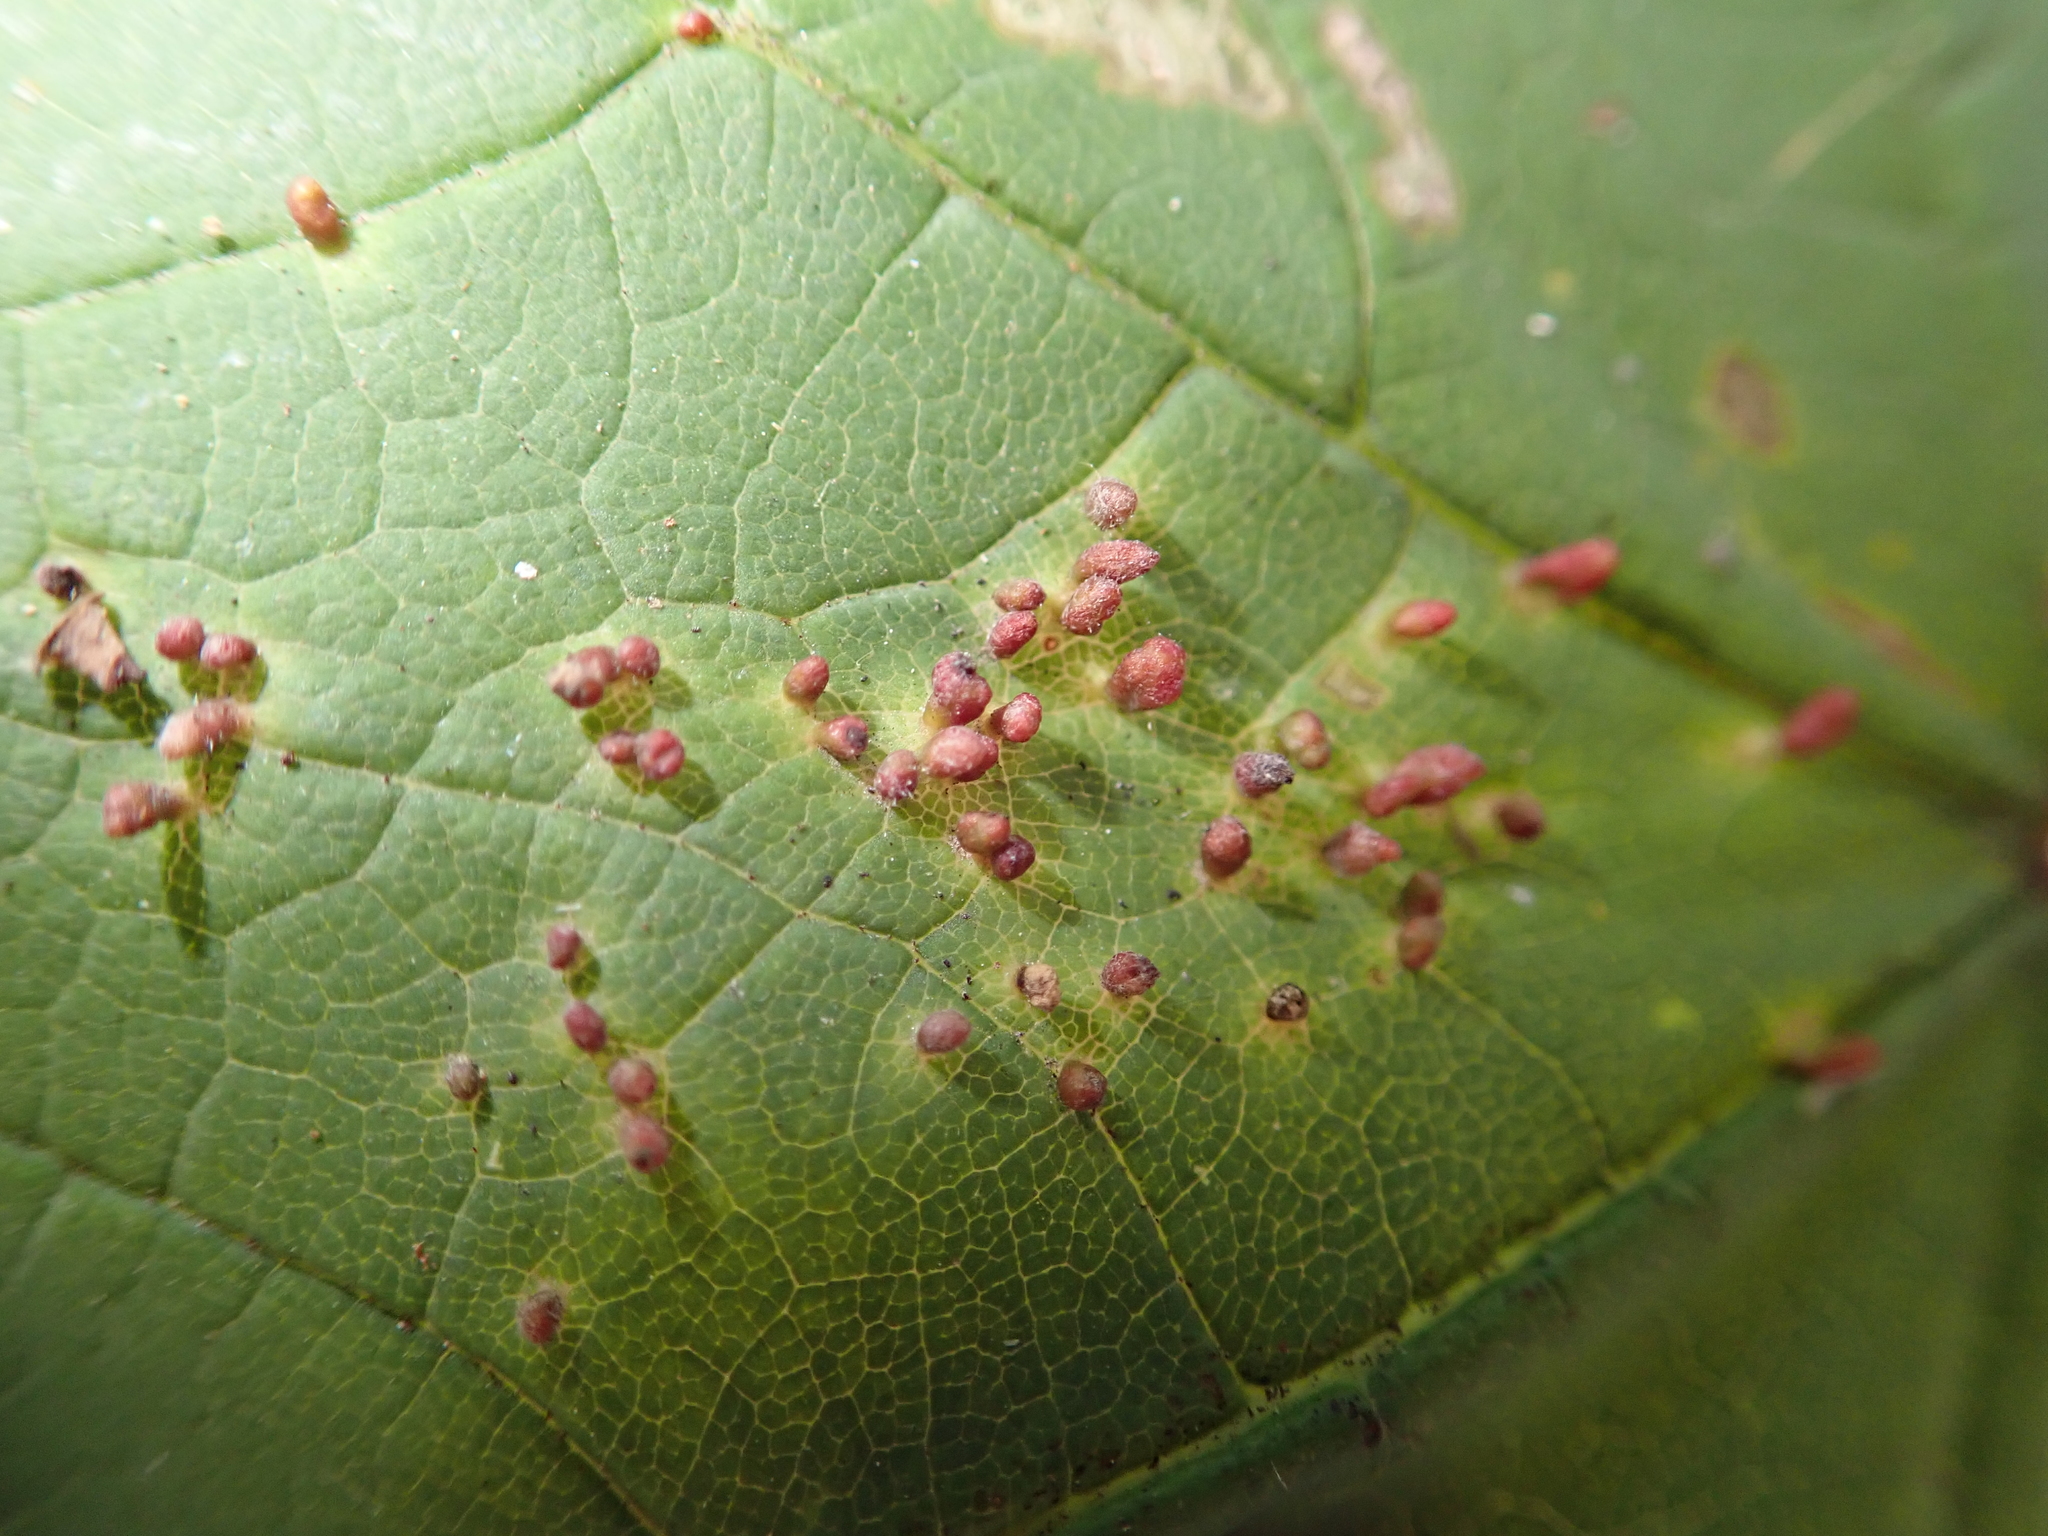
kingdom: Animalia
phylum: Arthropoda
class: Arachnida
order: Trombidiformes
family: Eriophyidae
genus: Aceria
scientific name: Aceria cephaloneus
